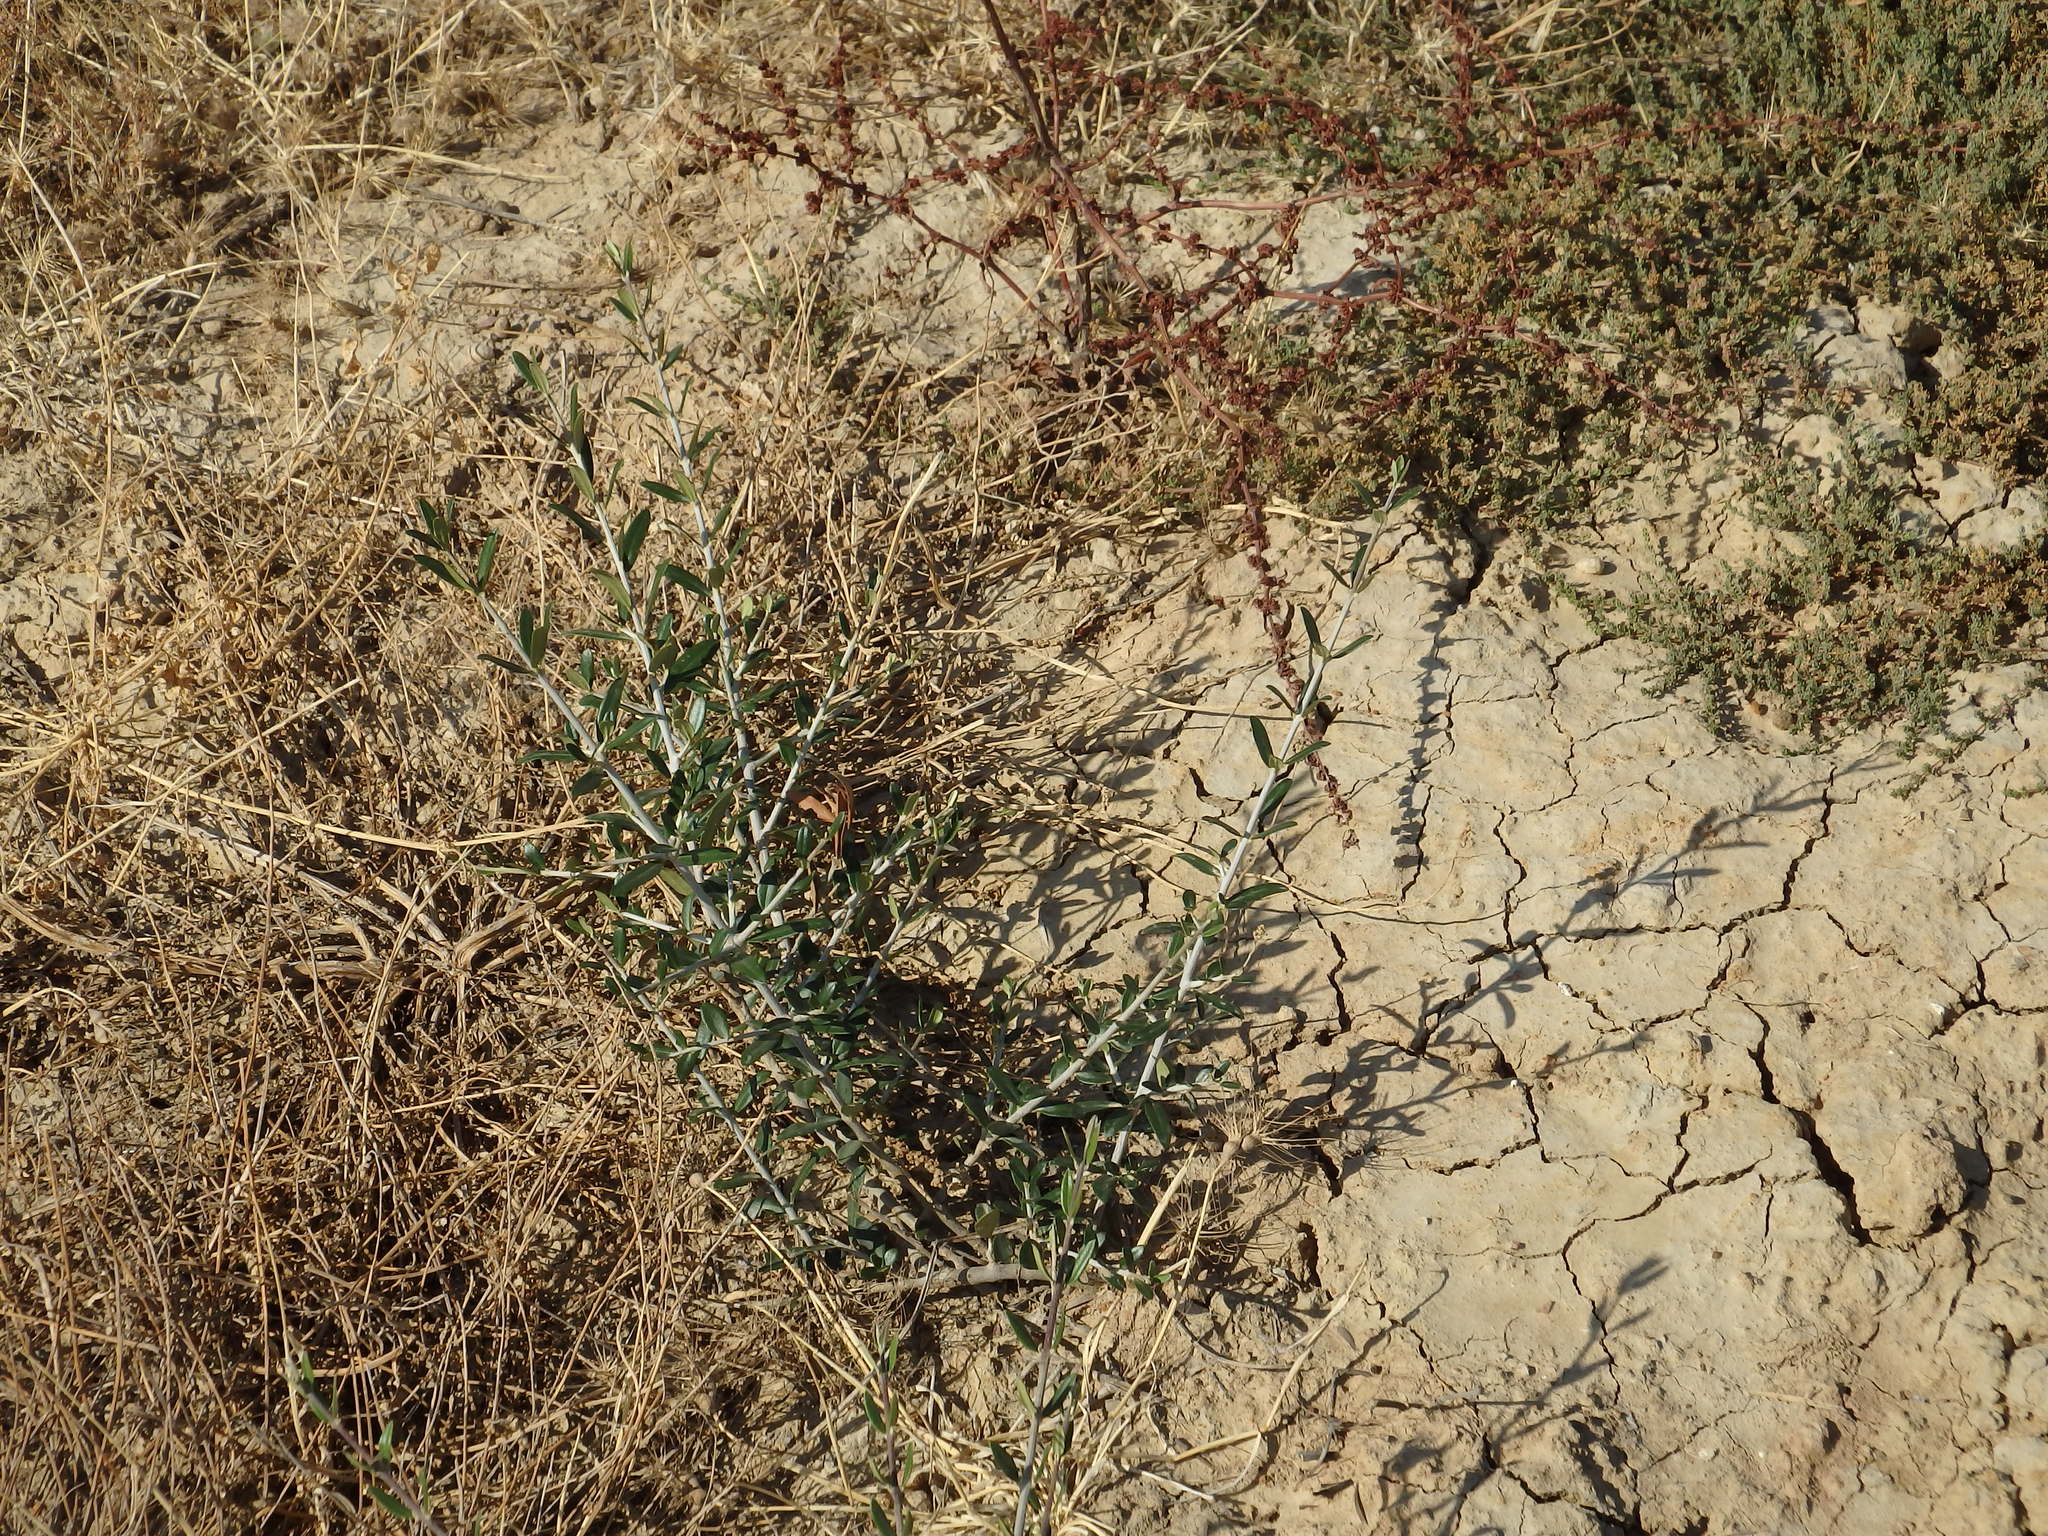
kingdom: Plantae
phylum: Tracheophyta
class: Magnoliopsida
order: Lamiales
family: Oleaceae
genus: Olea
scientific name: Olea europaea
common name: Olive
